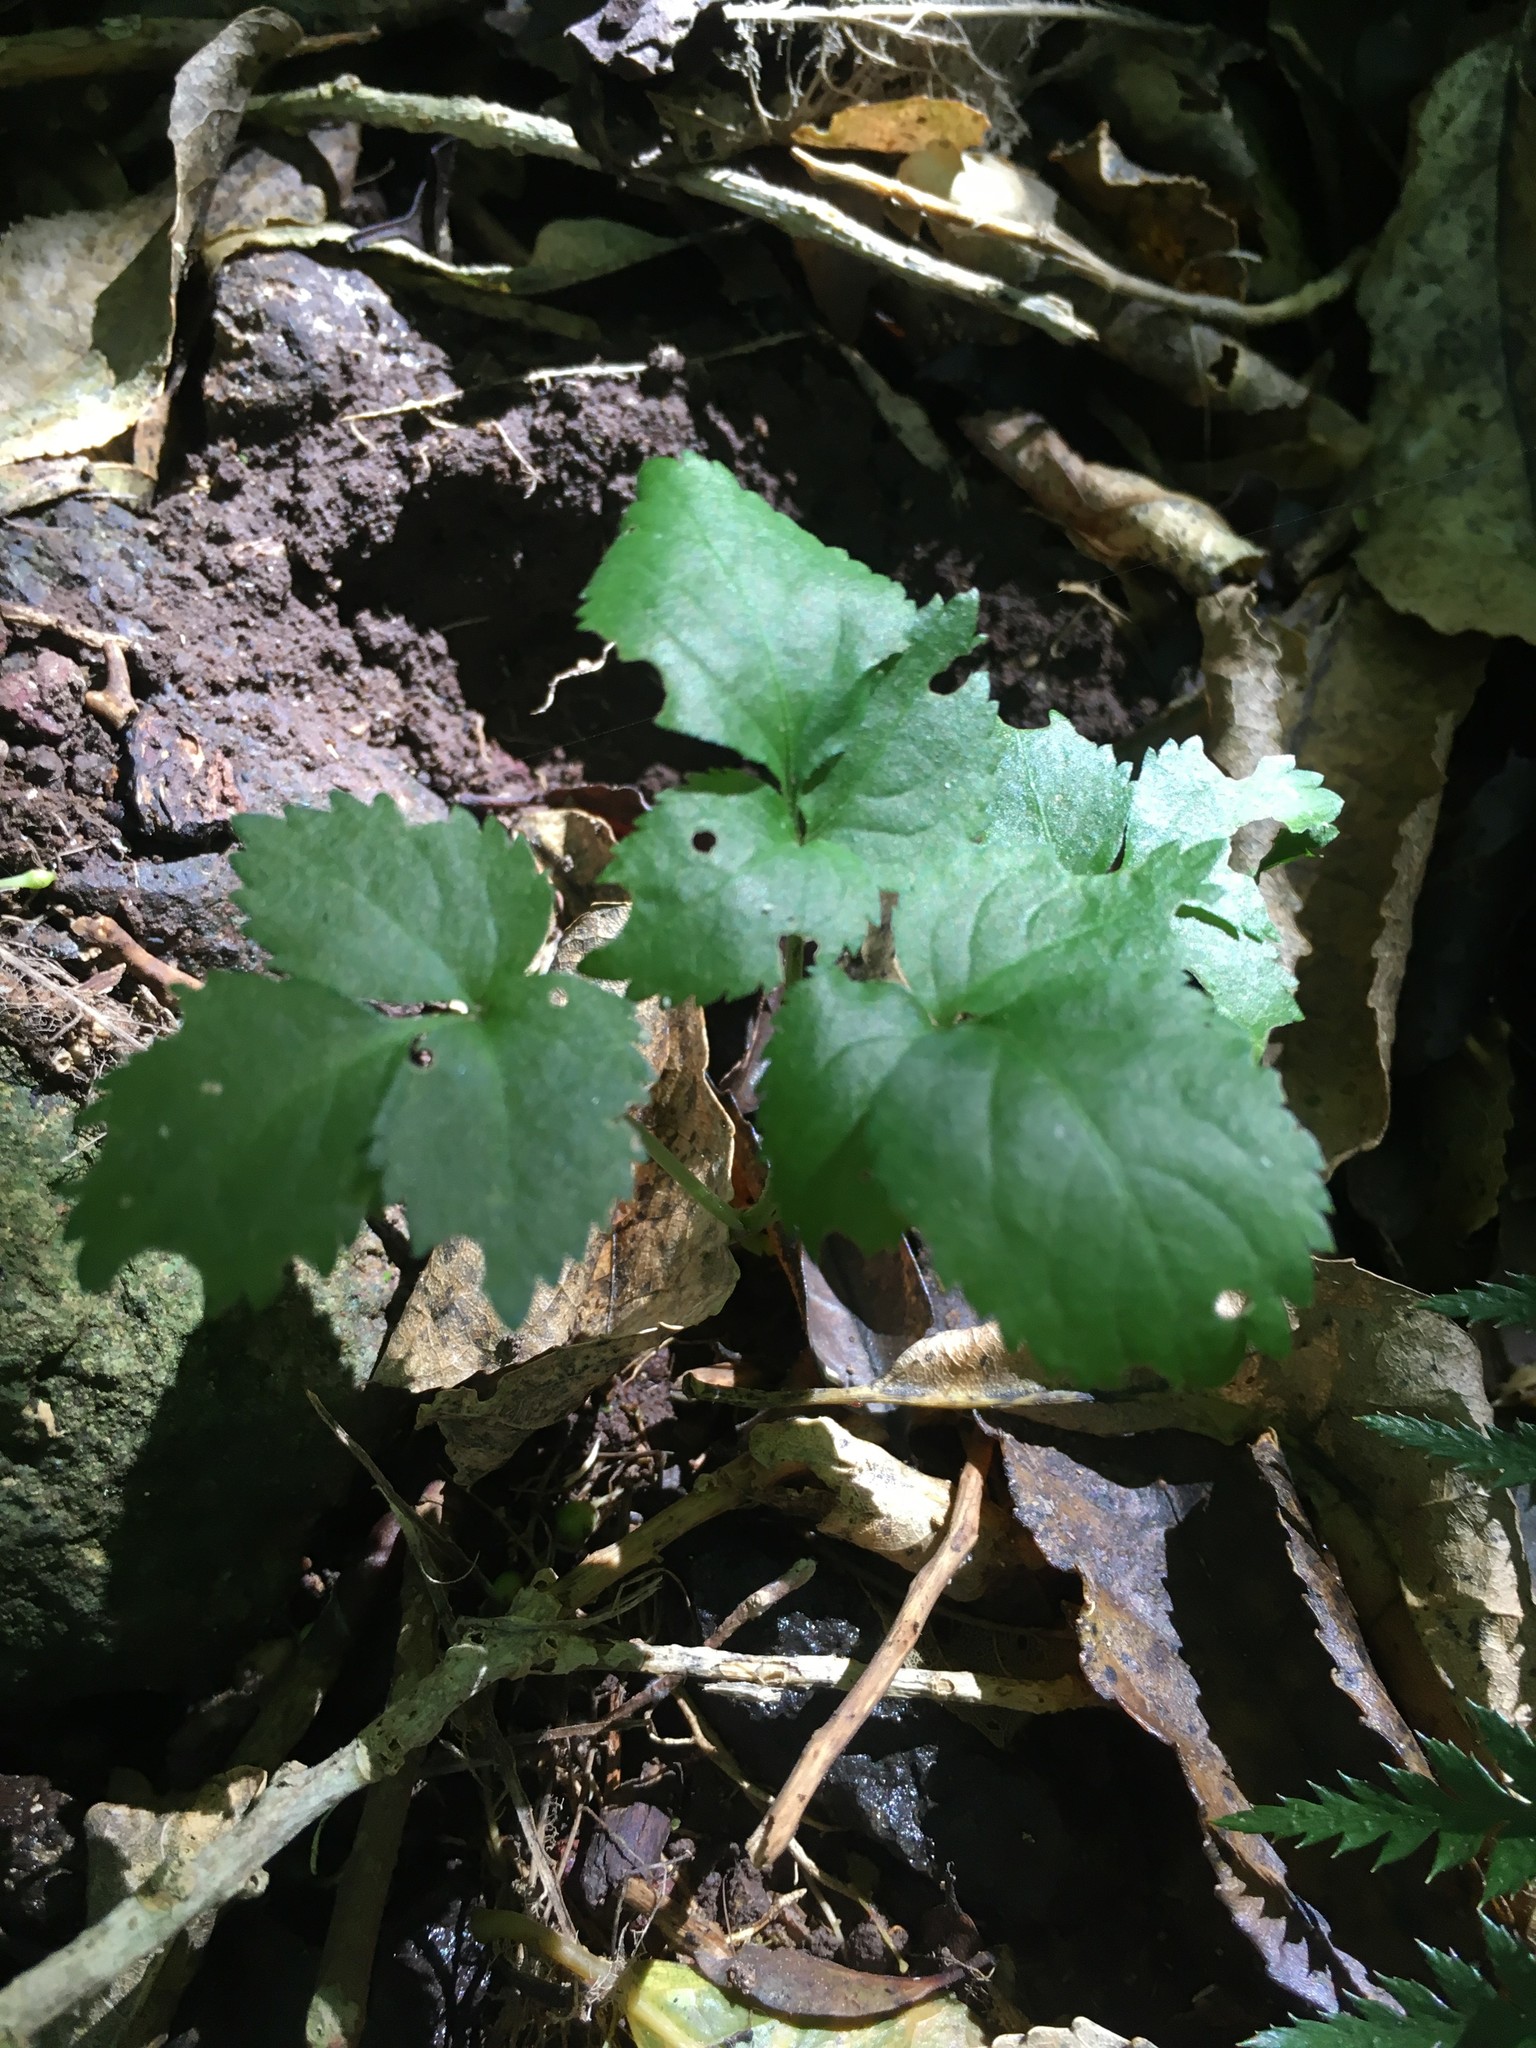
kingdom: Plantae
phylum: Tracheophyta
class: Magnoliopsida
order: Dipsacales
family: Viburnaceae
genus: Sambucus
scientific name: Sambucus nigra
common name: Elder
